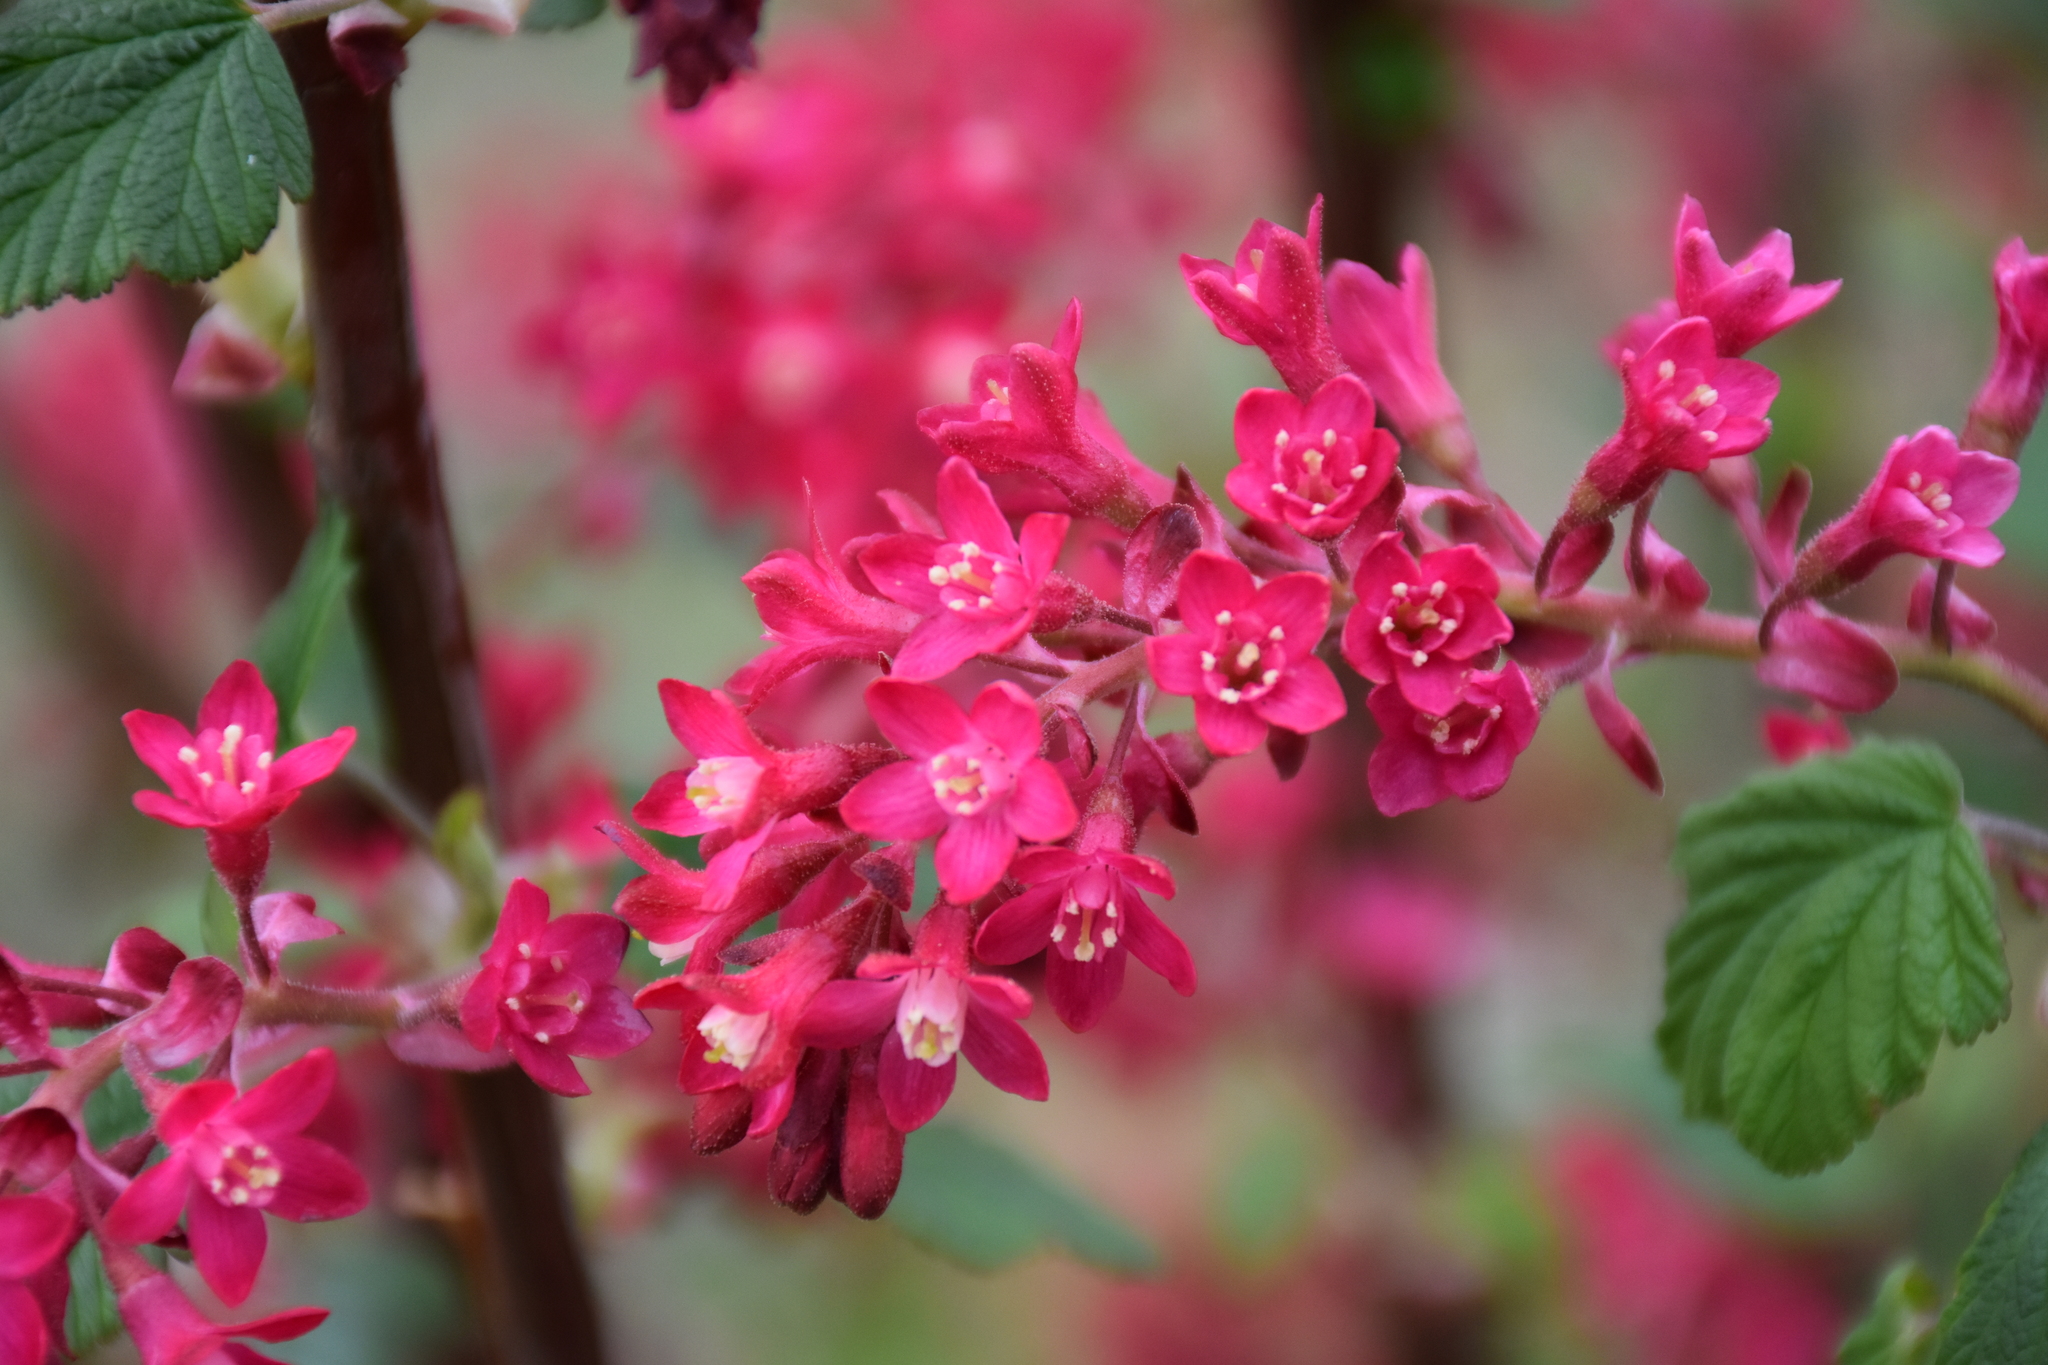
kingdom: Plantae
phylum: Tracheophyta
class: Magnoliopsida
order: Saxifragales
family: Grossulariaceae
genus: Ribes
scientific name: Ribes sanguineum
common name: Flowering currant
